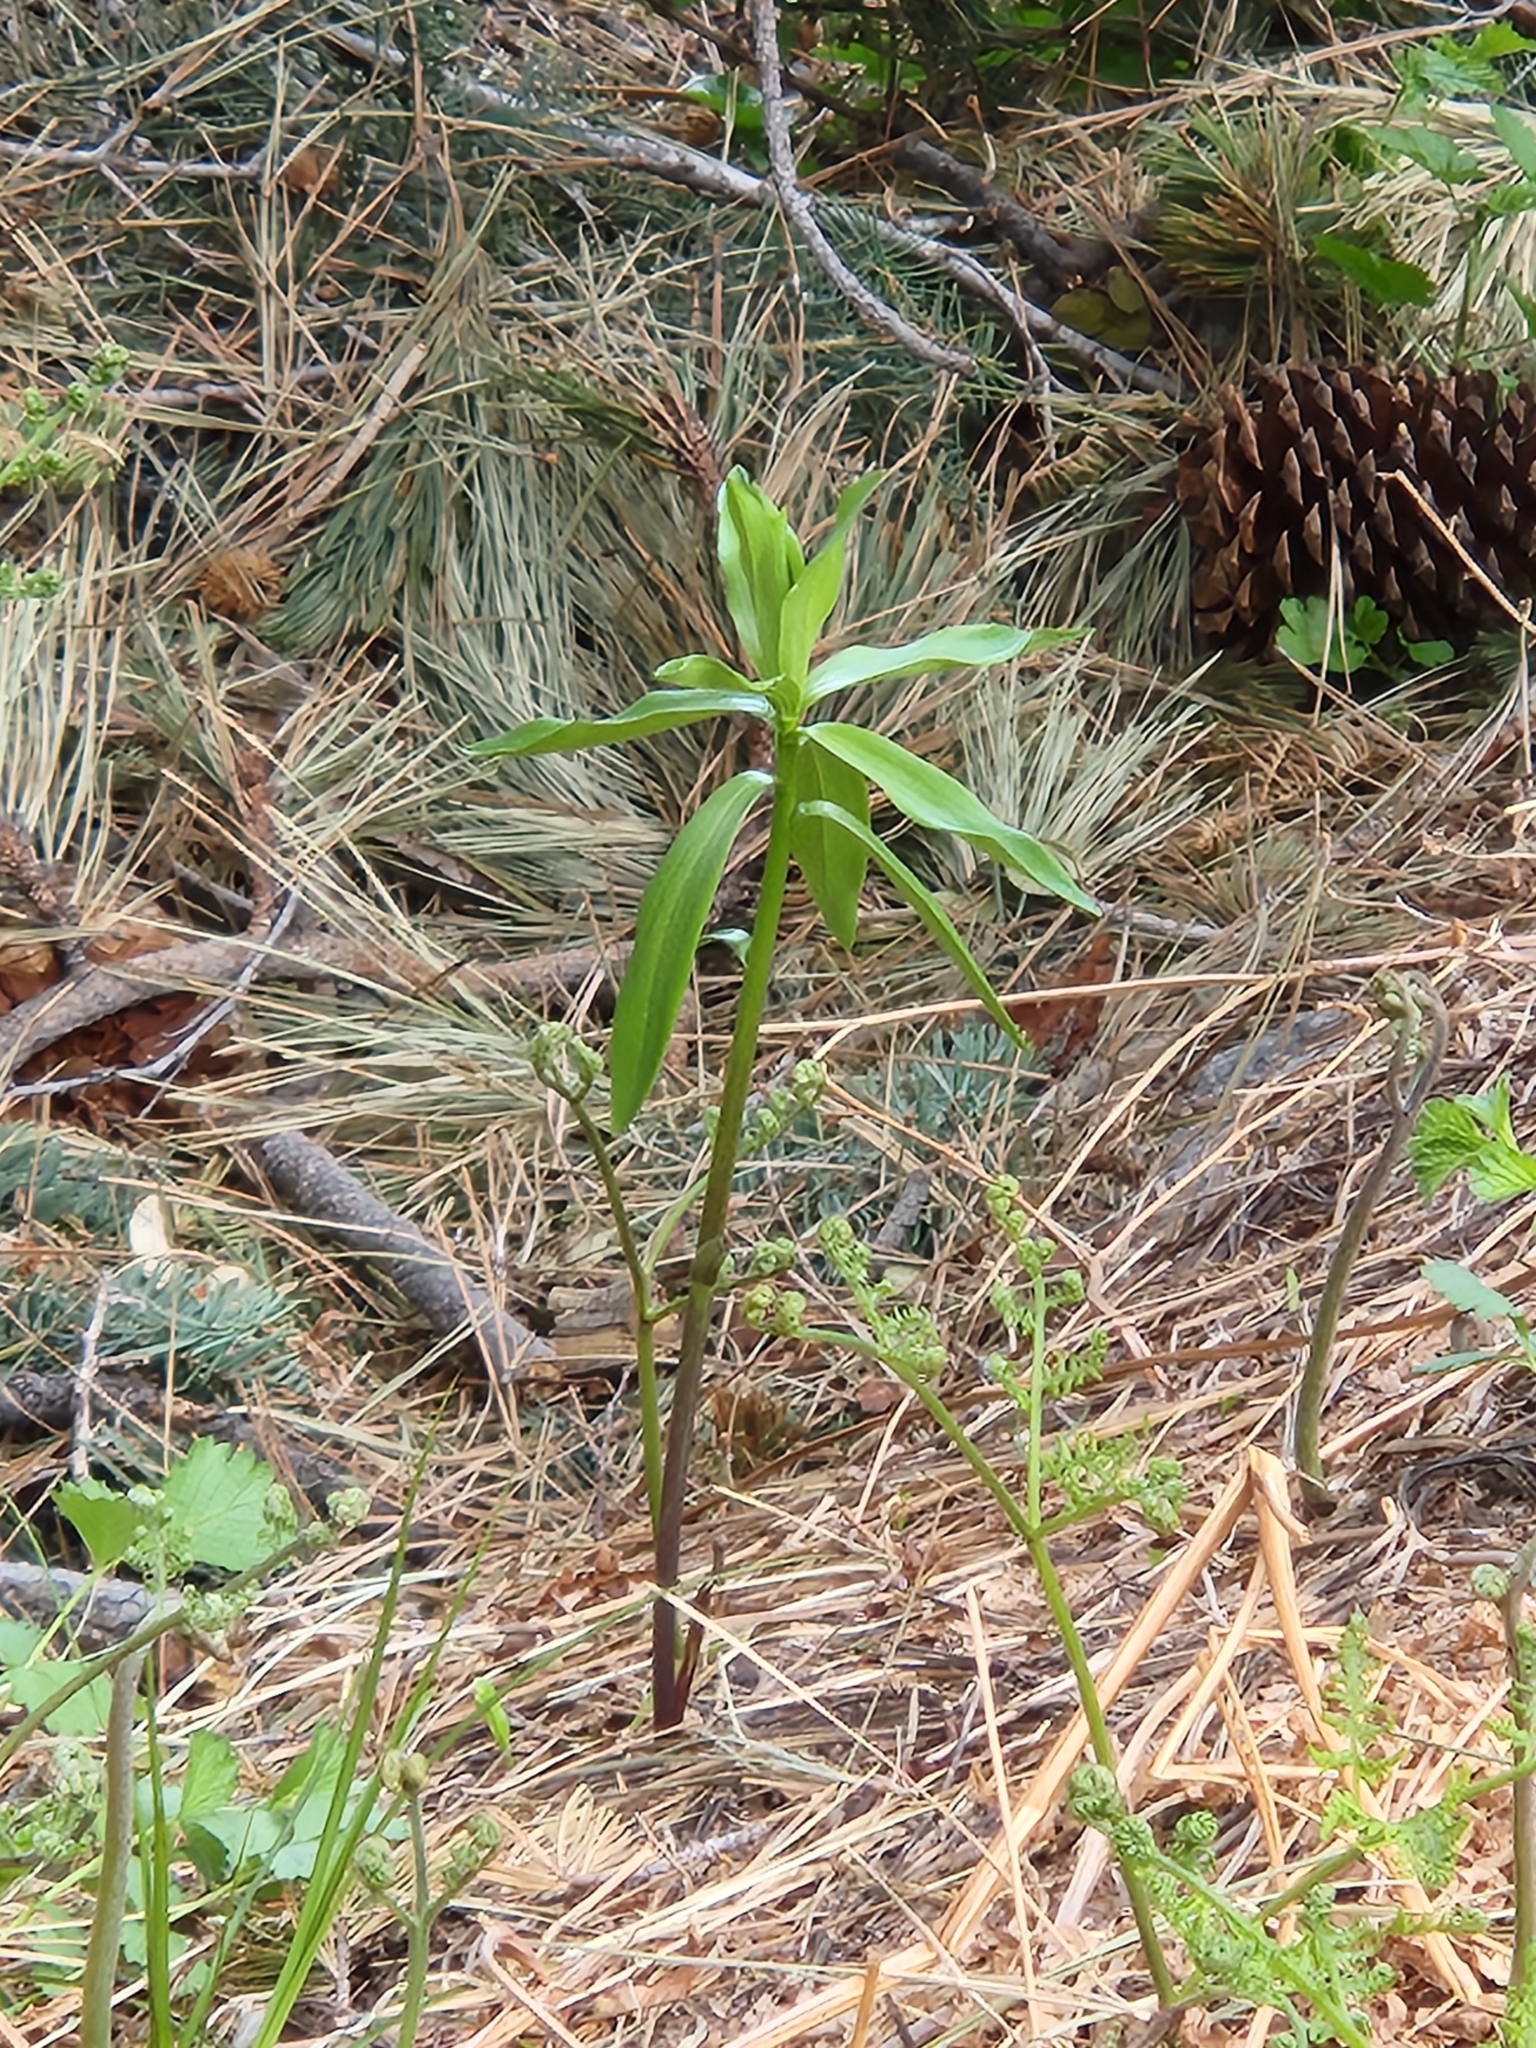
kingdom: Plantae
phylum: Tracheophyta
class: Liliopsida
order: Liliales
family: Liliaceae
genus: Lilium
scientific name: Lilium parryi
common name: Lemon lily
